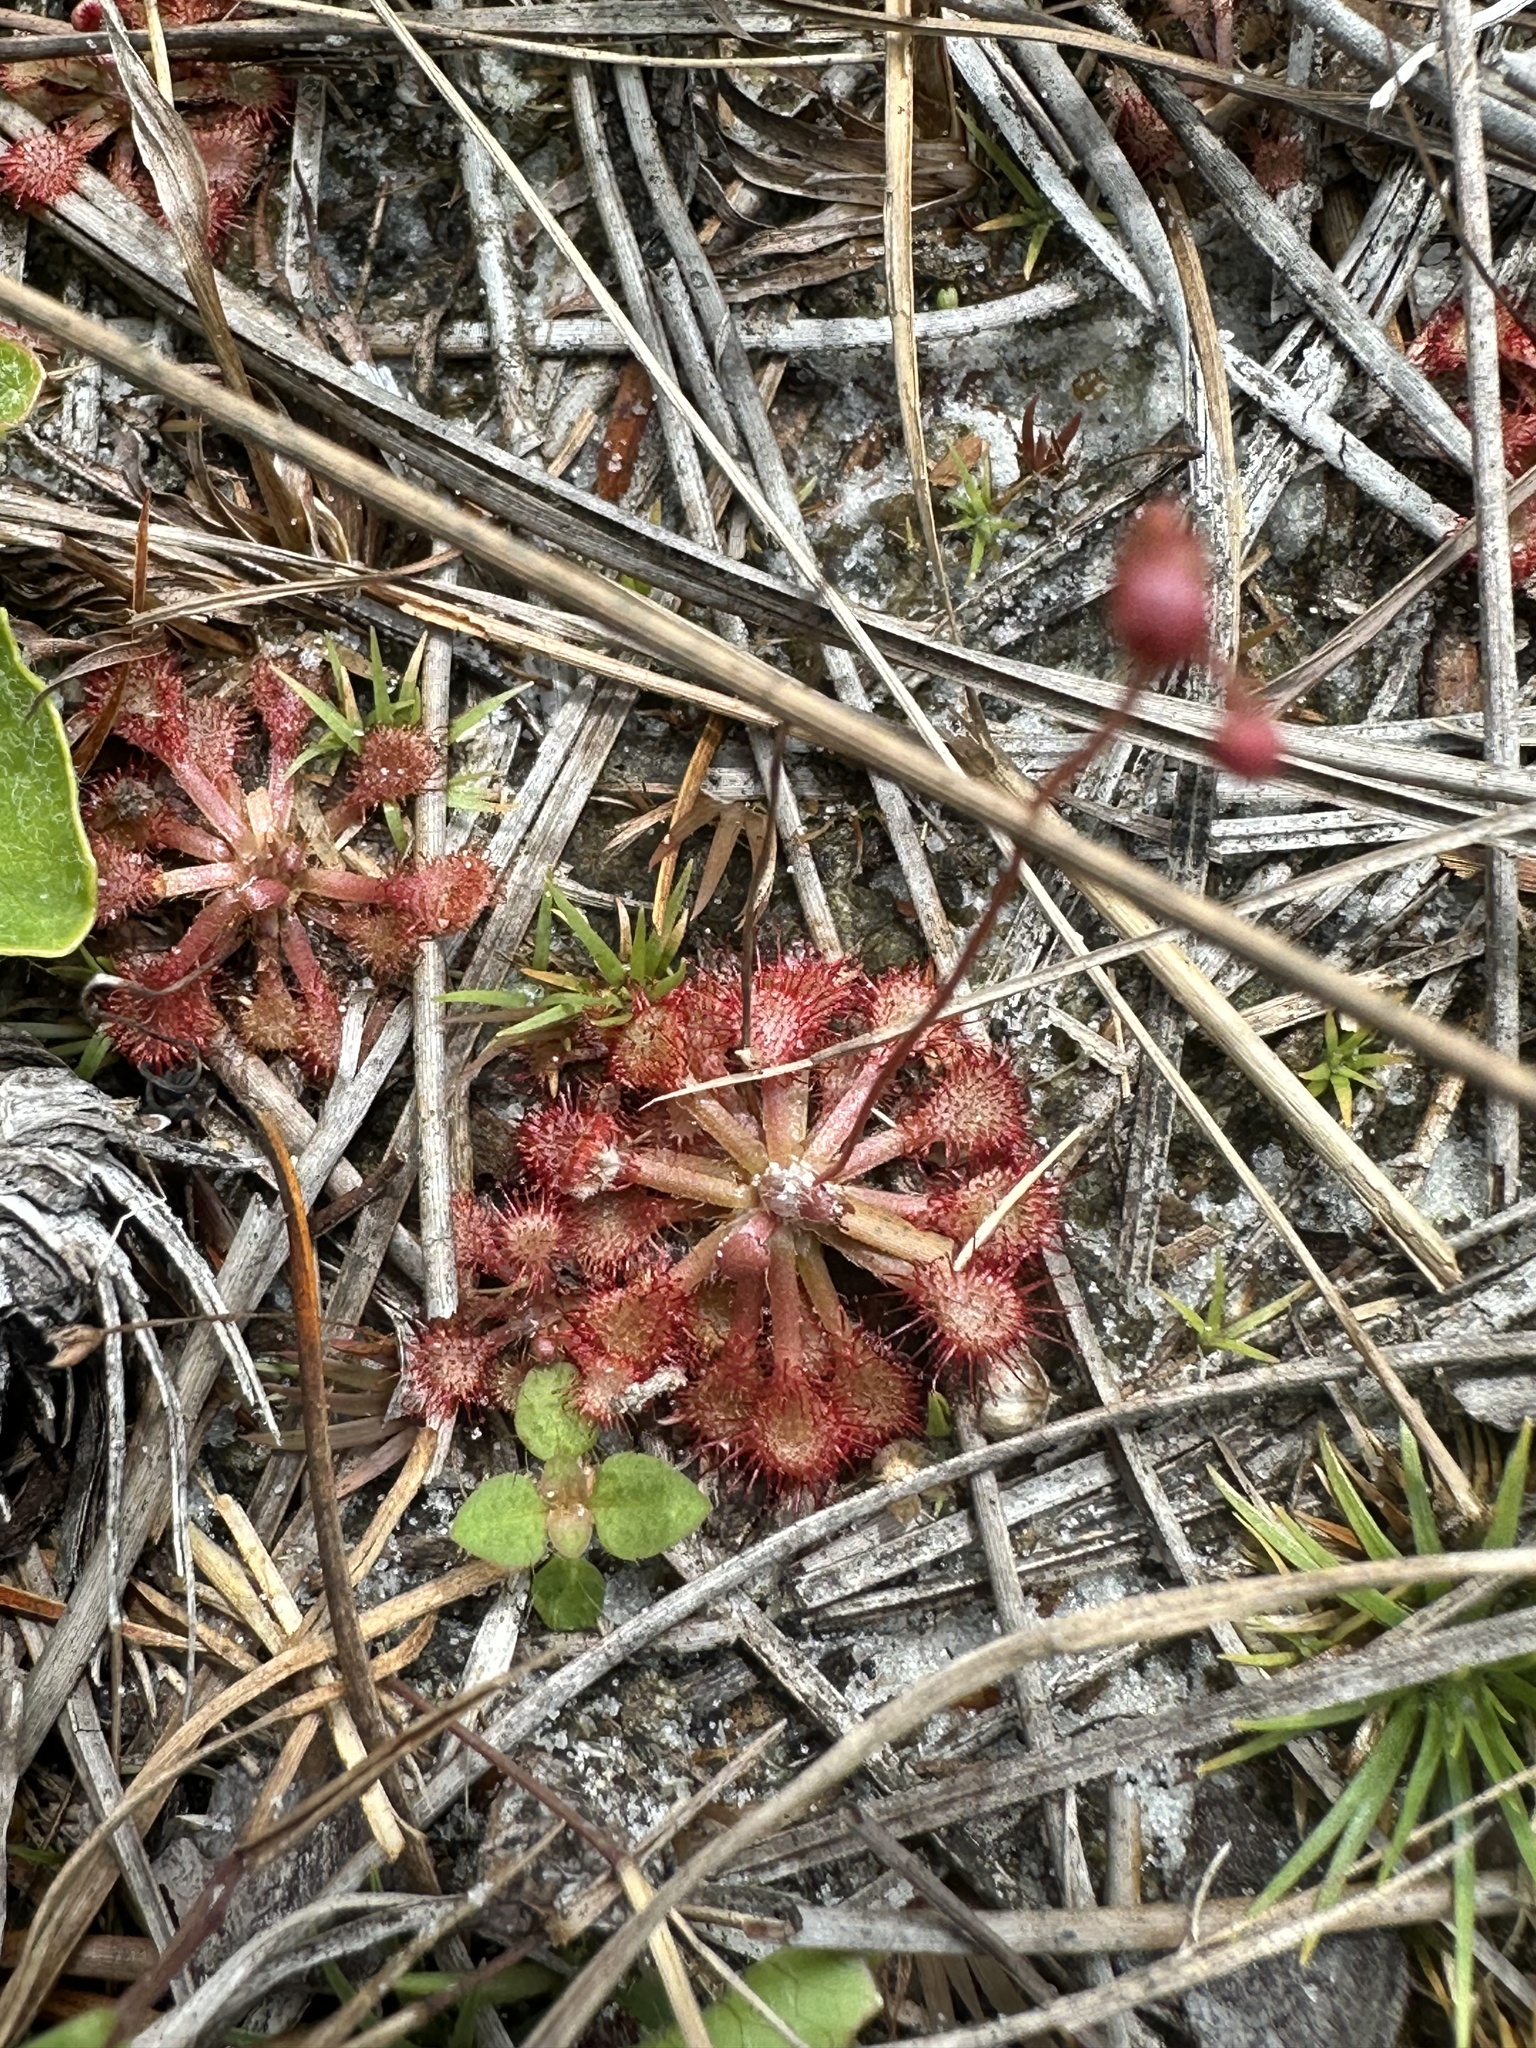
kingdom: Plantae
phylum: Tracheophyta
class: Magnoliopsida
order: Caryophyllales
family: Droseraceae
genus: Drosera
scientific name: Drosera capillaris
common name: Pink sundew
